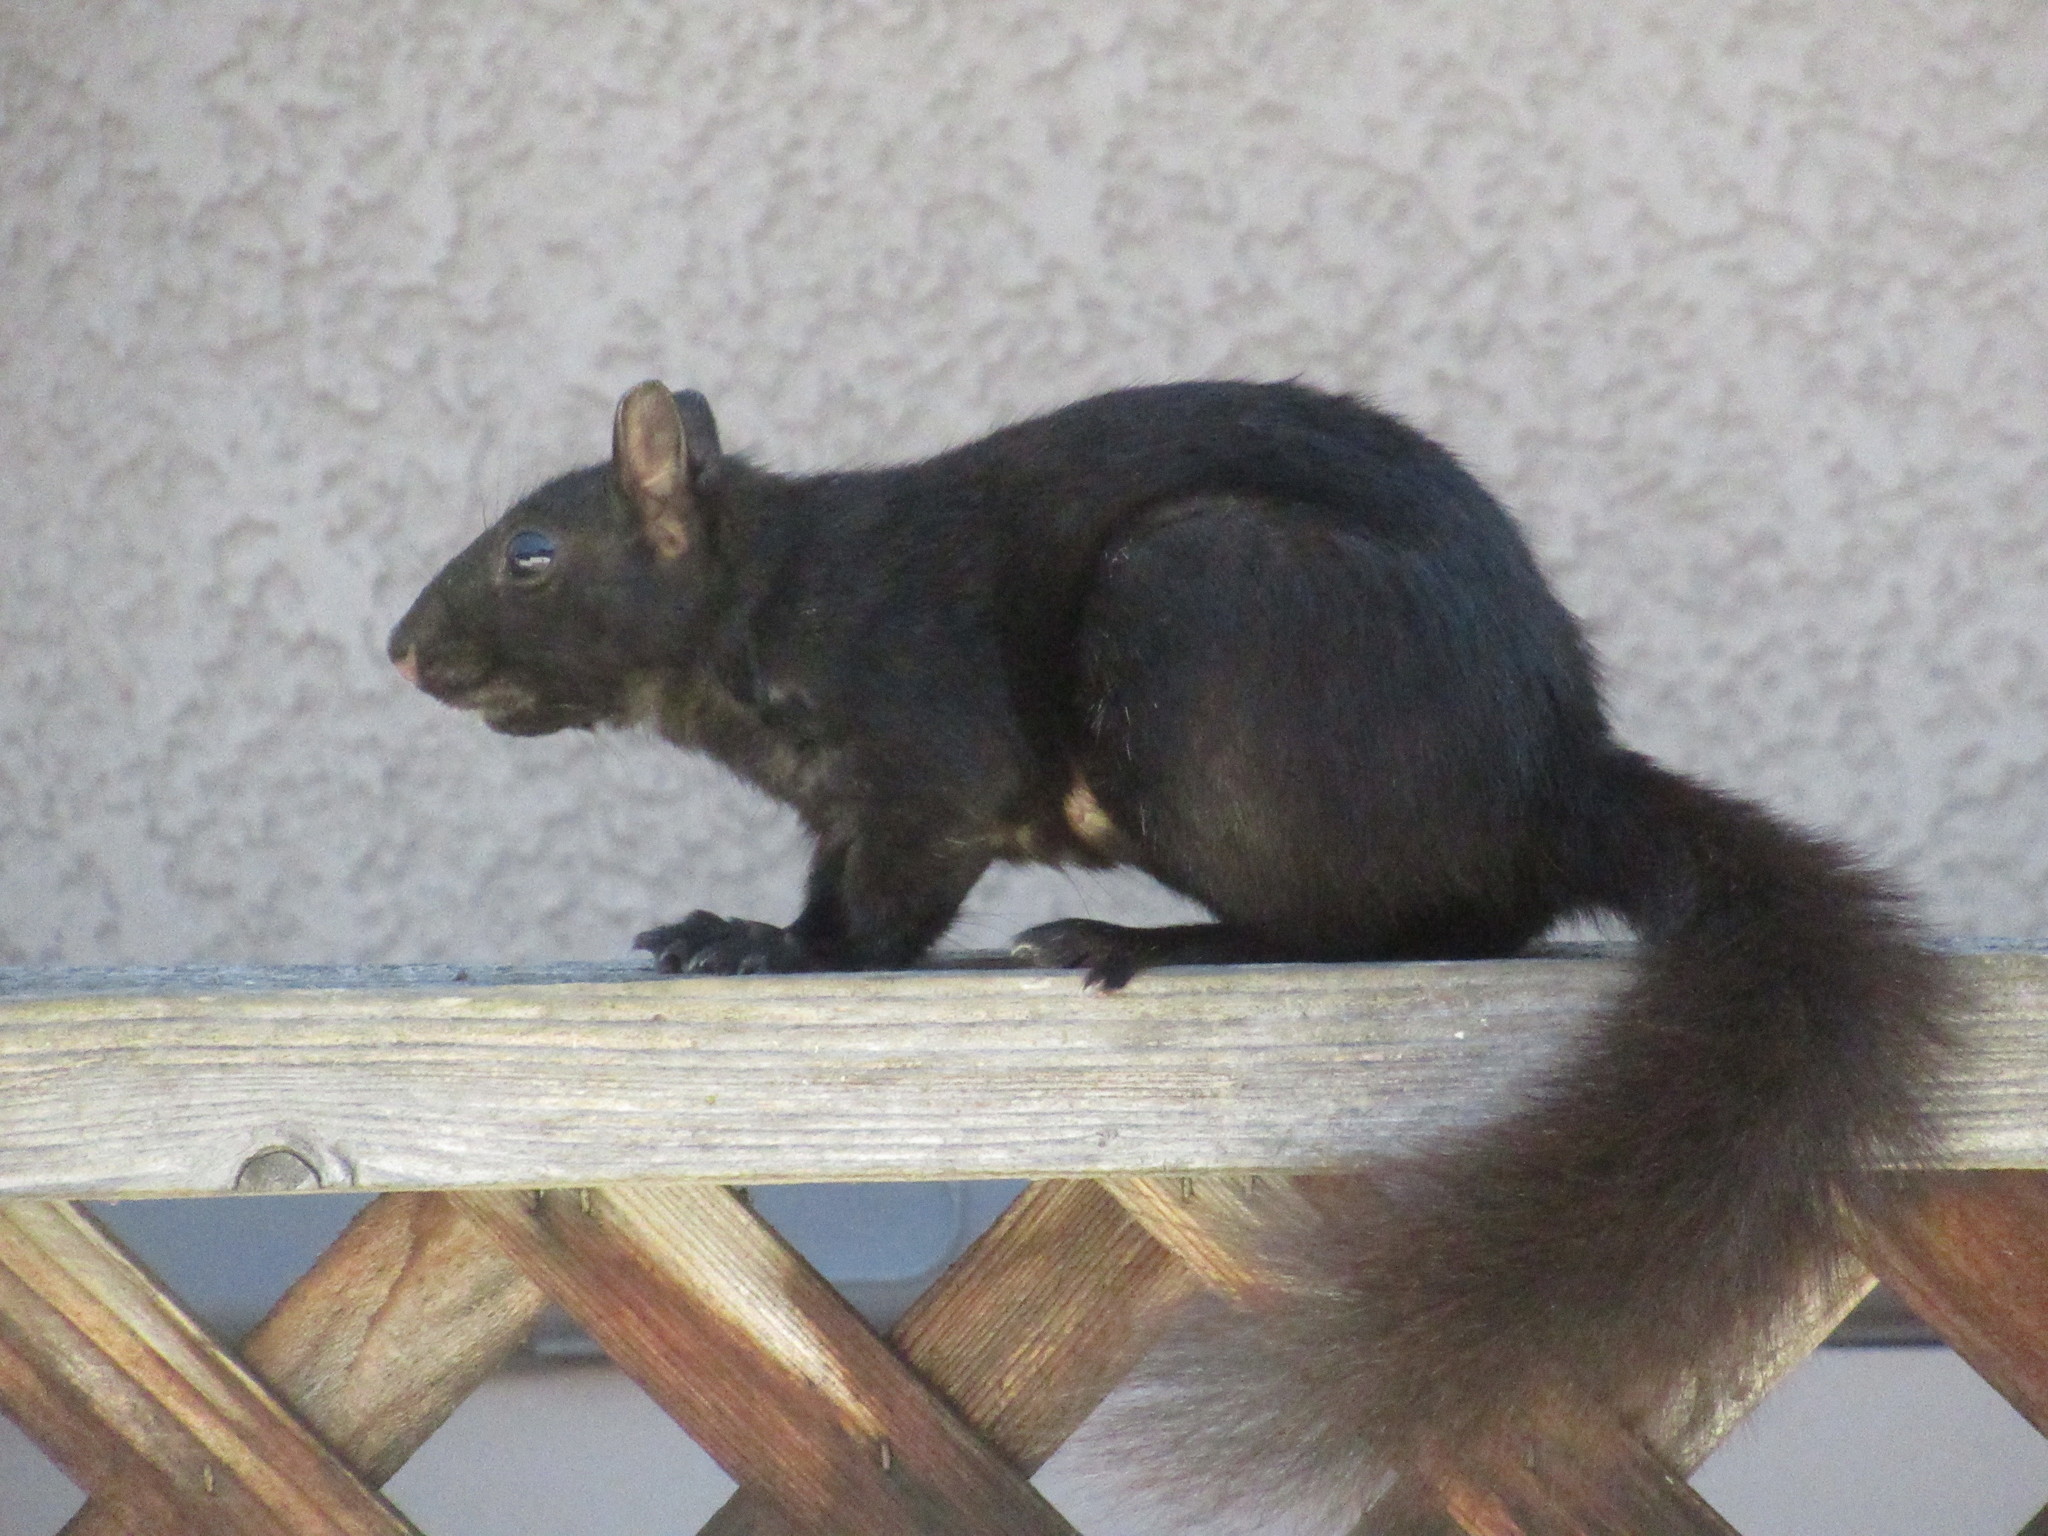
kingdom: Animalia
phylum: Chordata
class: Mammalia
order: Rodentia
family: Sciuridae
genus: Sciurus
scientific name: Sciurus carolinensis
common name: Eastern gray squirrel
